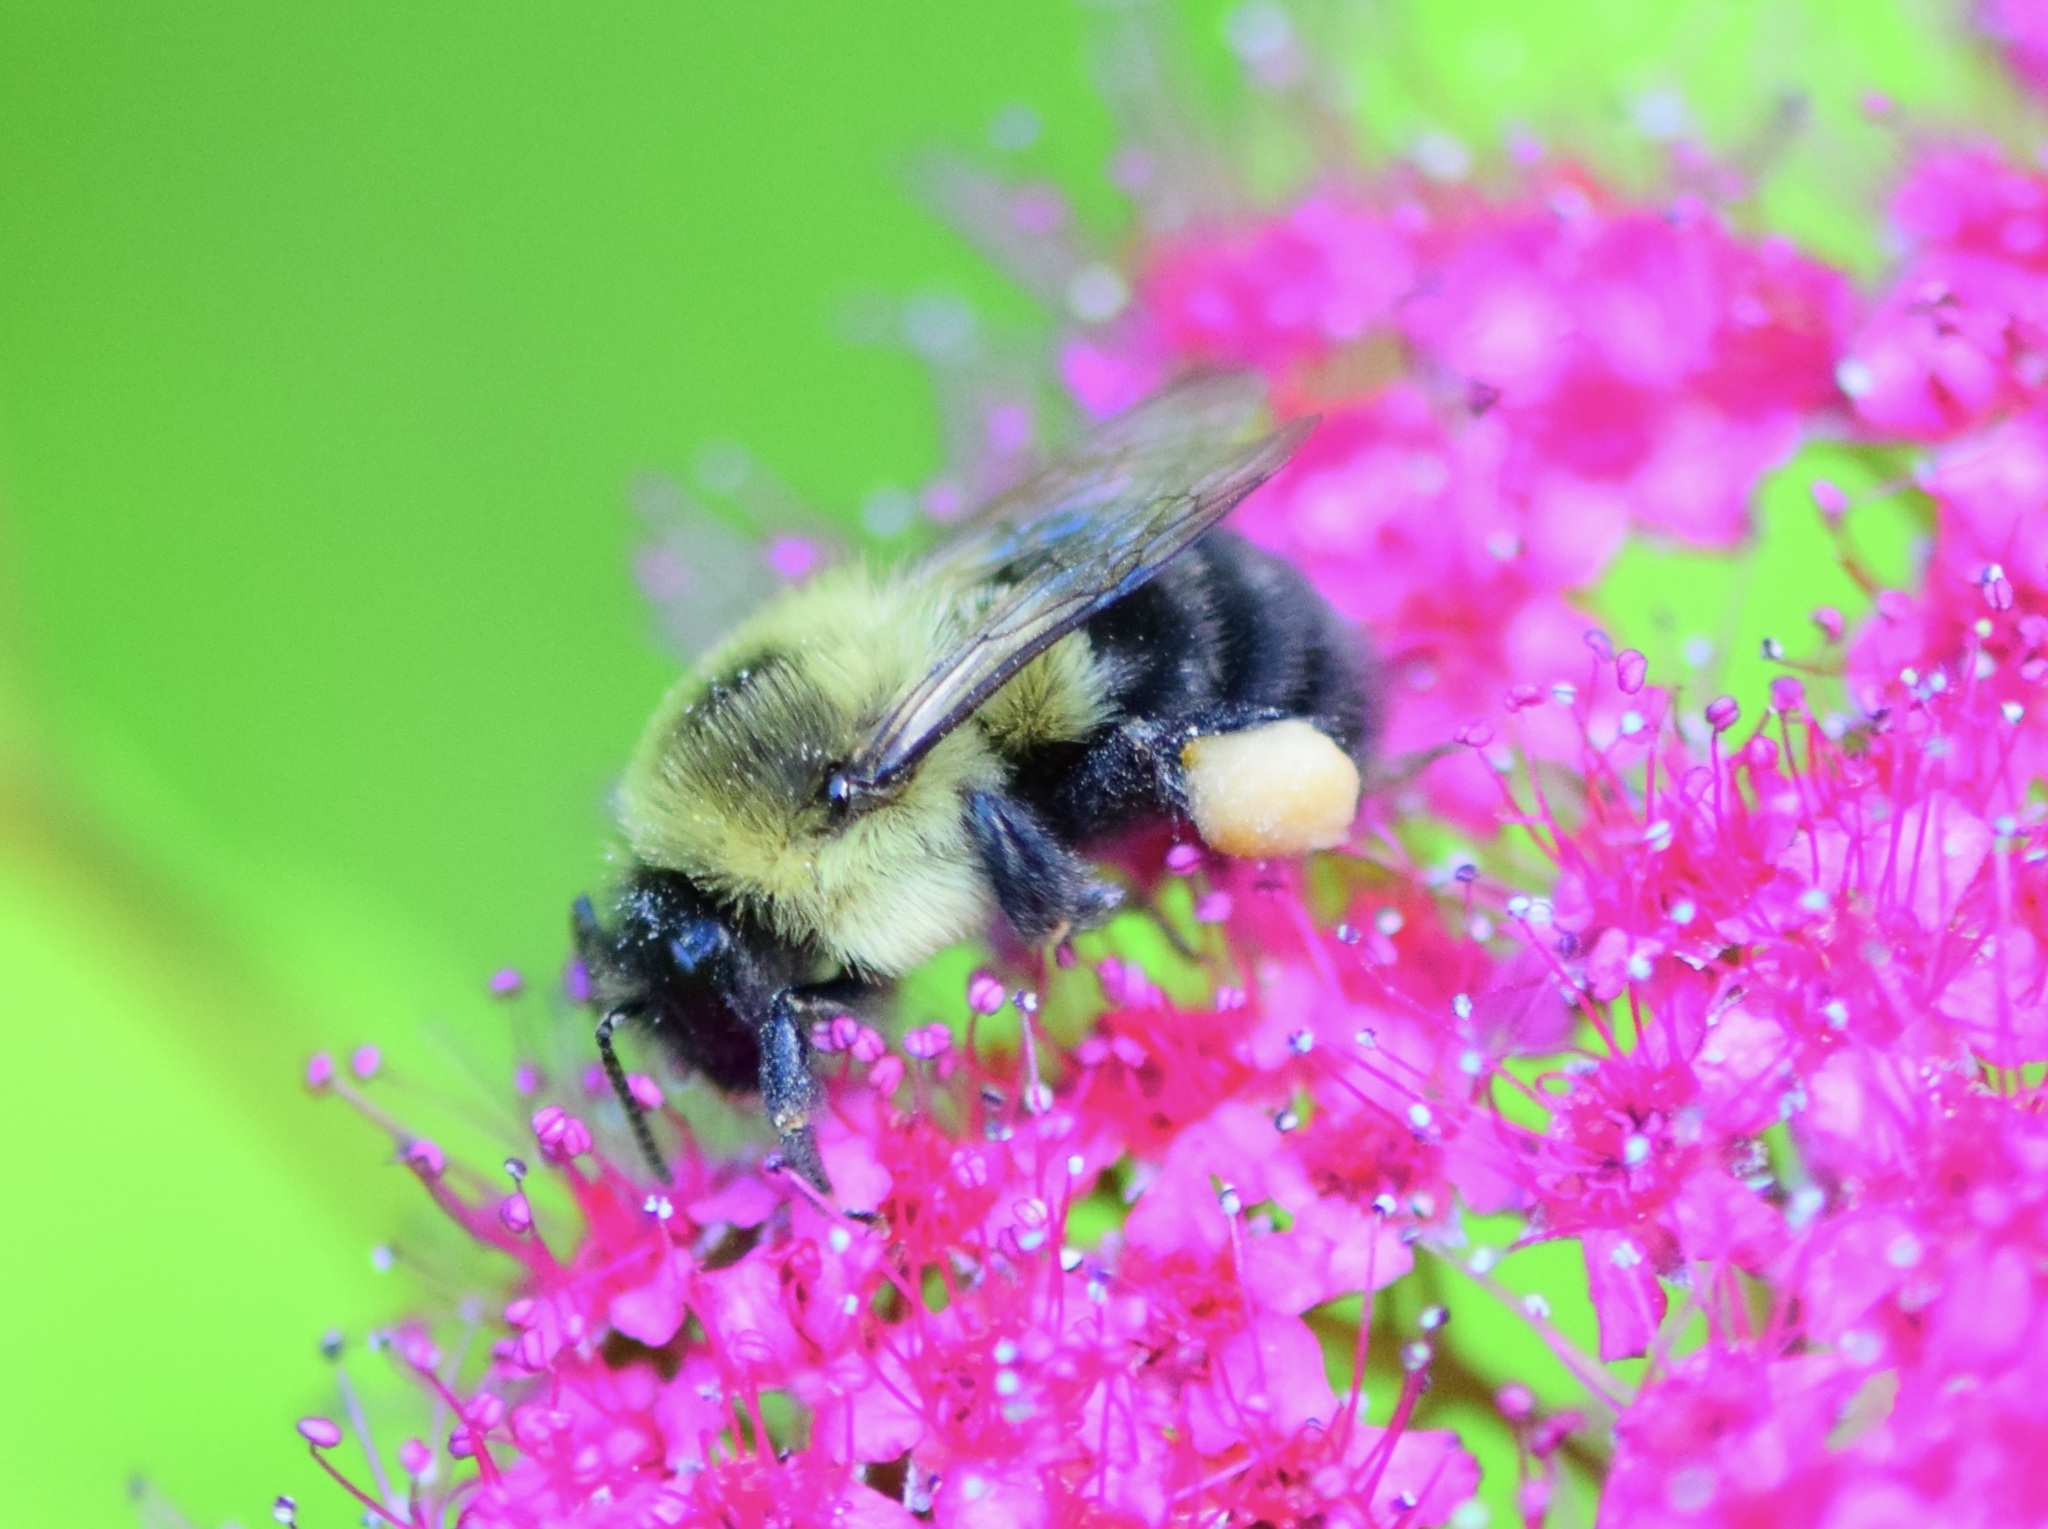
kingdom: Animalia
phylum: Arthropoda
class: Insecta
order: Hymenoptera
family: Apidae
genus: Bombus
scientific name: Bombus impatiens
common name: Common eastern bumble bee
